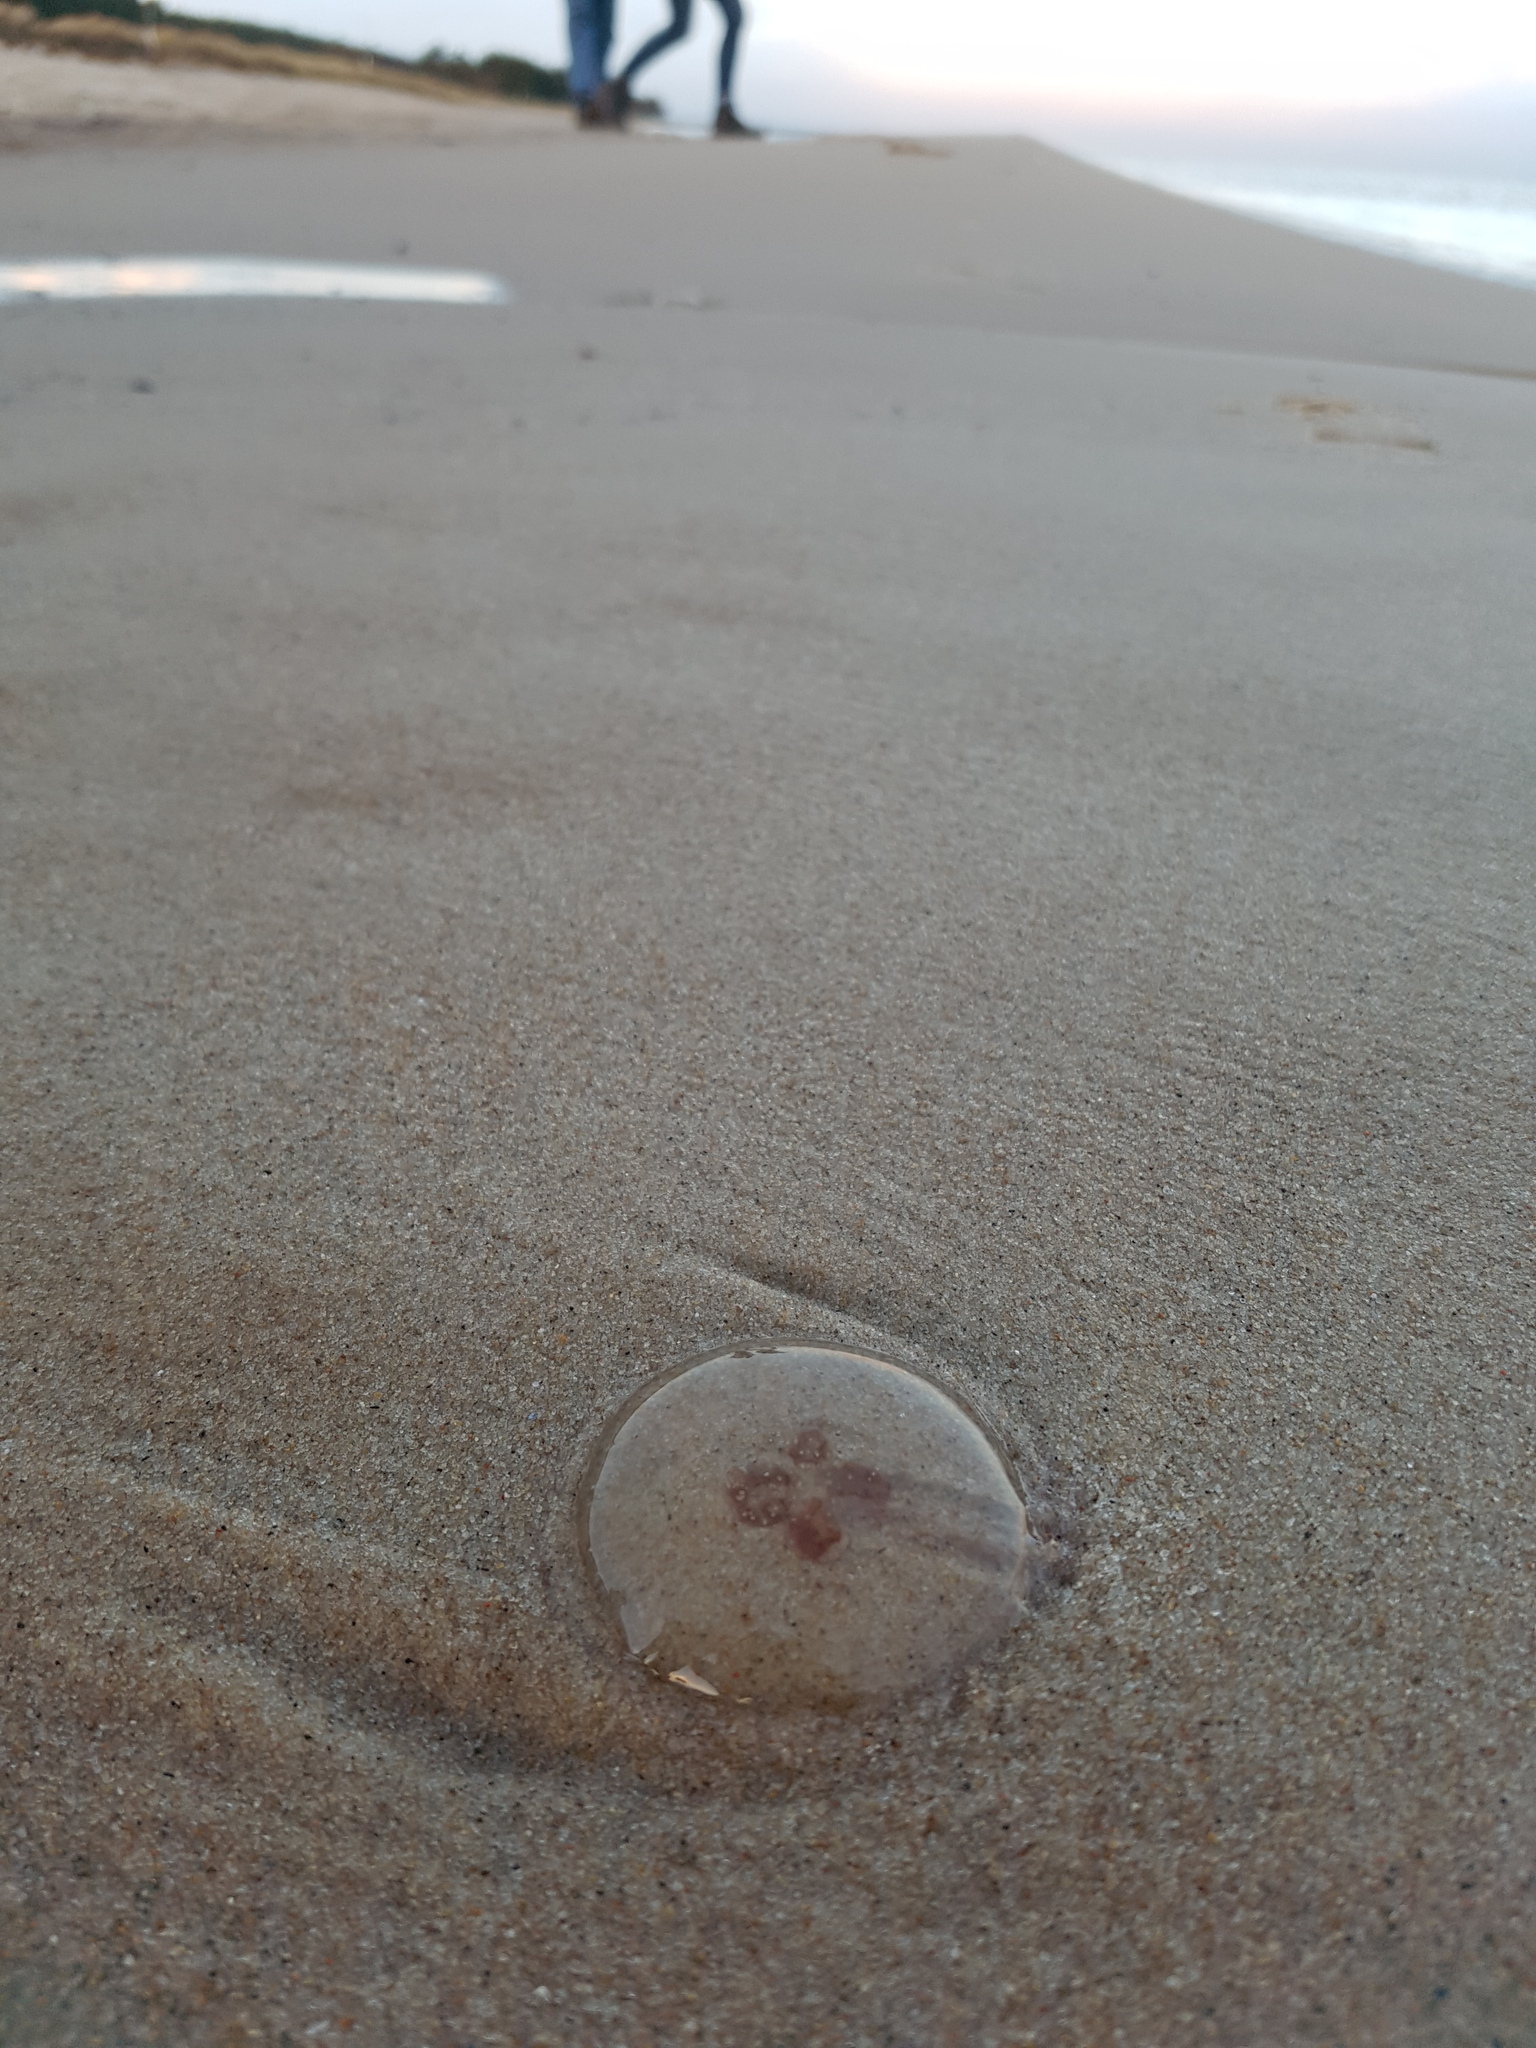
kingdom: Animalia
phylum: Cnidaria
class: Scyphozoa
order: Semaeostomeae
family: Ulmaridae
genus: Aurelia
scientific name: Aurelia aurita
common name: Moon jellyfish
